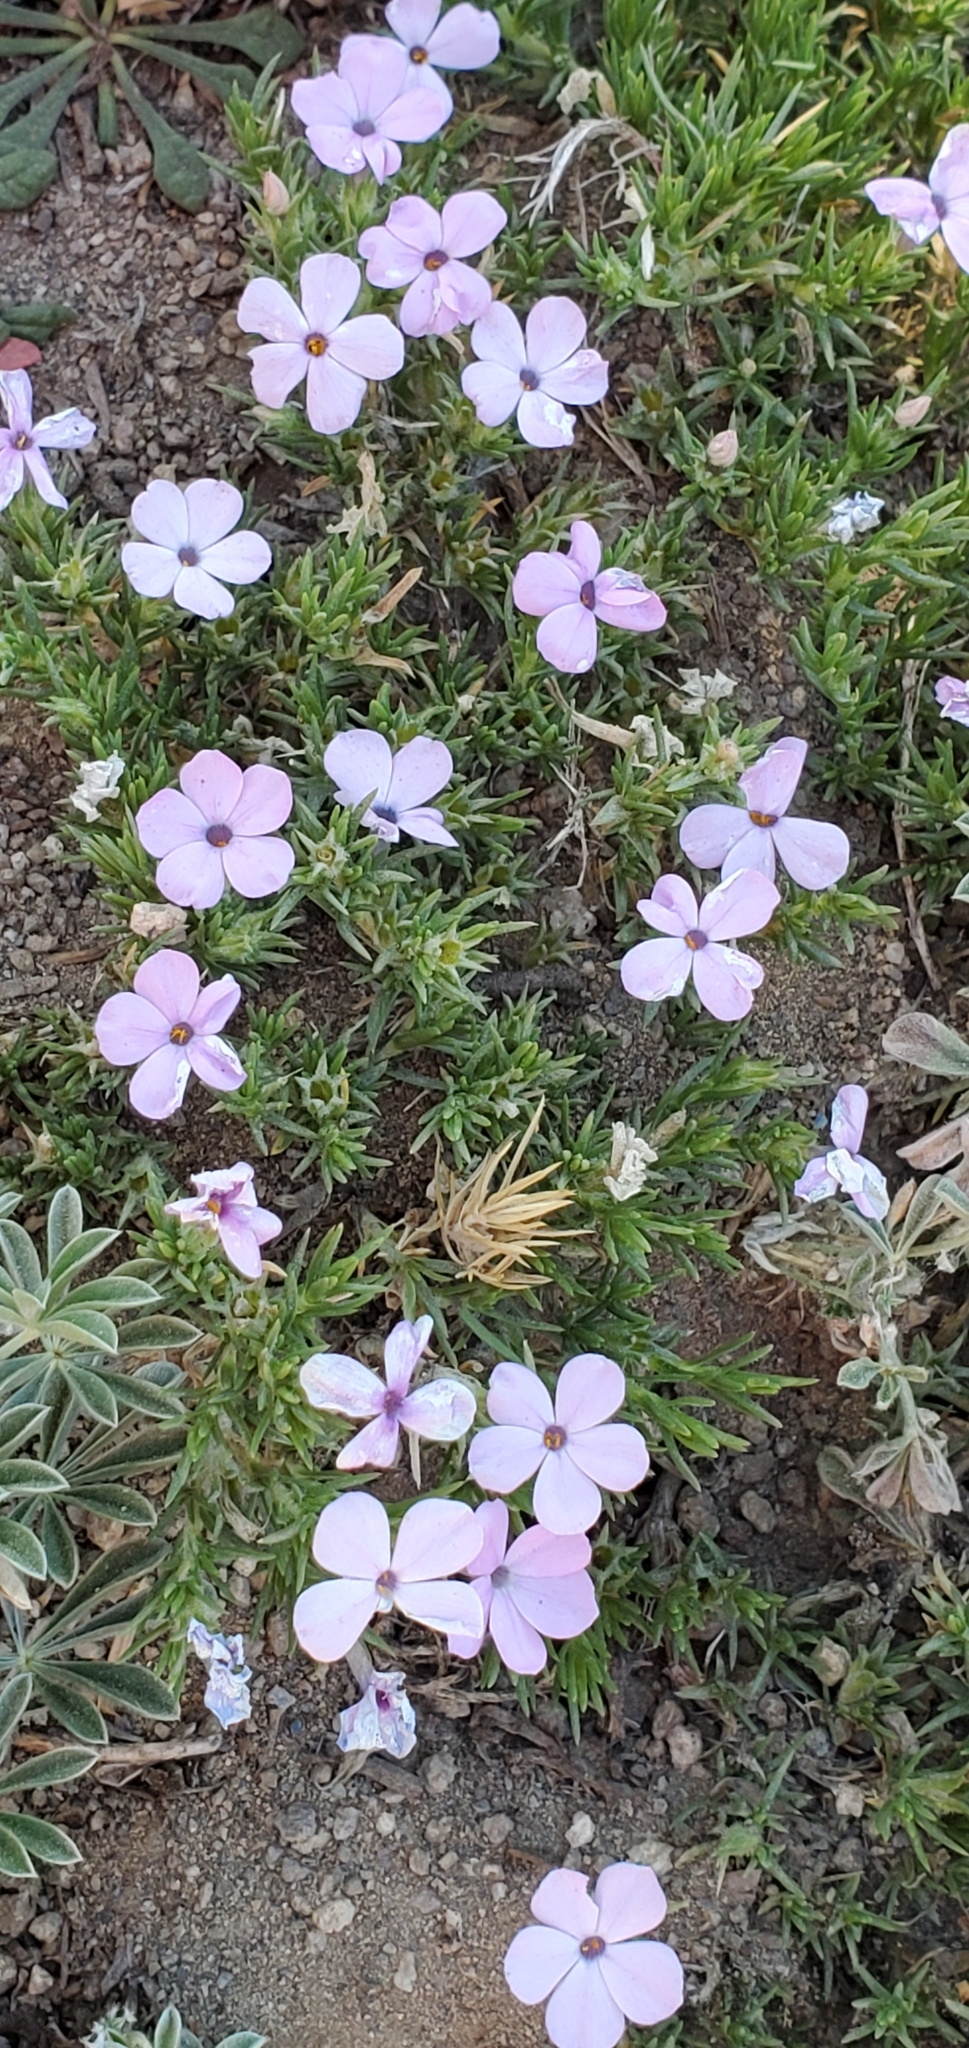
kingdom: Plantae
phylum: Tracheophyta
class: Magnoliopsida
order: Ericales
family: Polemoniaceae
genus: Phlox
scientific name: Phlox diffusa
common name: Mat phlox
